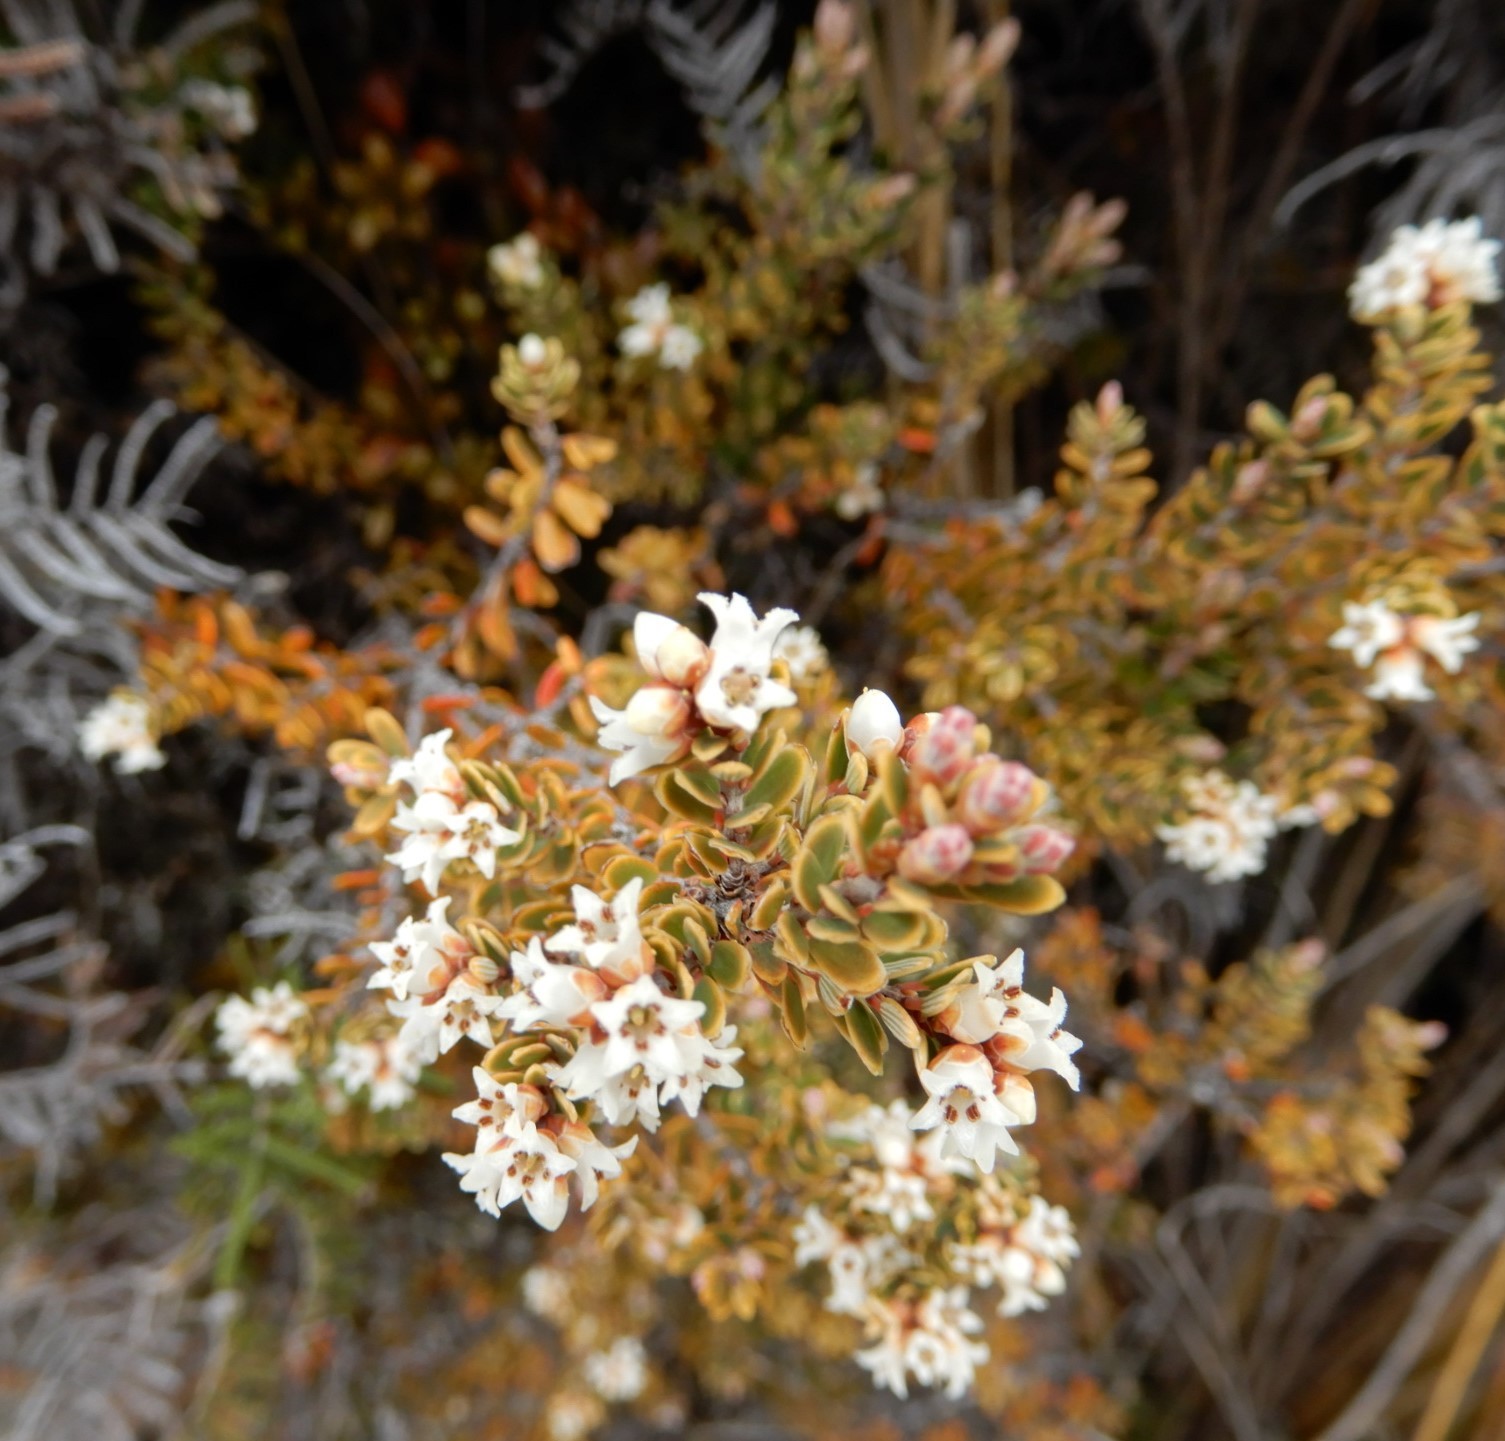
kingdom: Plantae
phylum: Tracheophyta
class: Magnoliopsida
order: Ericales
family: Ericaceae
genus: Acrothamnus
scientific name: Acrothamnus colensoi
